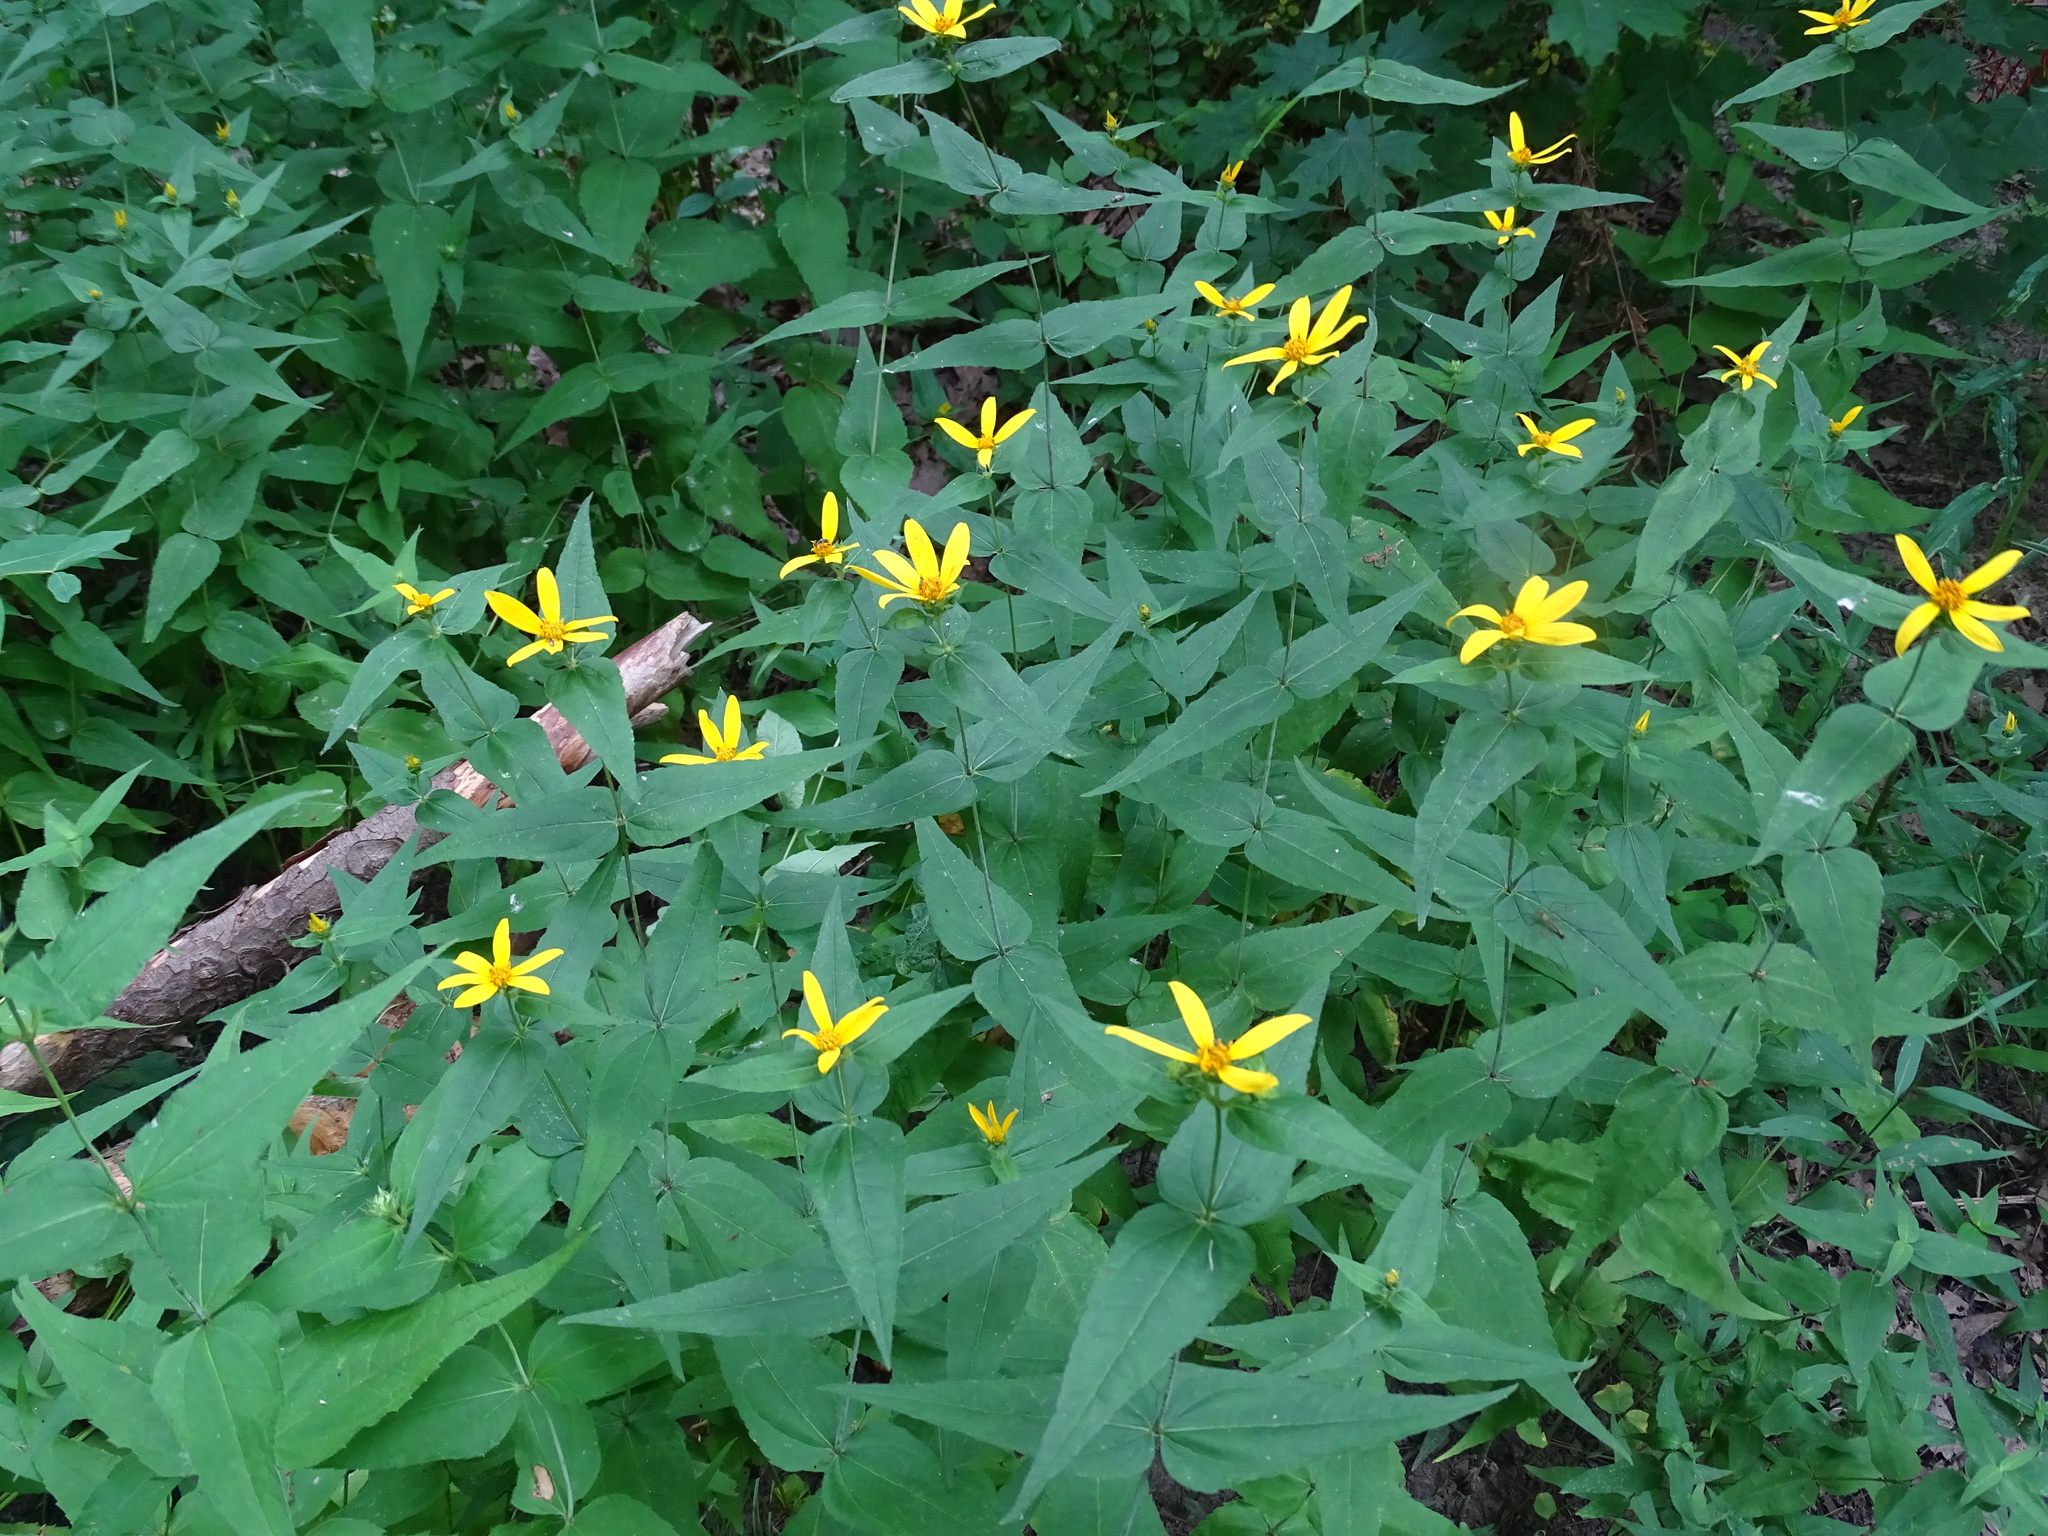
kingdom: Plantae
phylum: Tracheophyta
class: Magnoliopsida
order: Asterales
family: Asteraceae
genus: Helianthus
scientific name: Helianthus divaricatus
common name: Divergent sunflower
